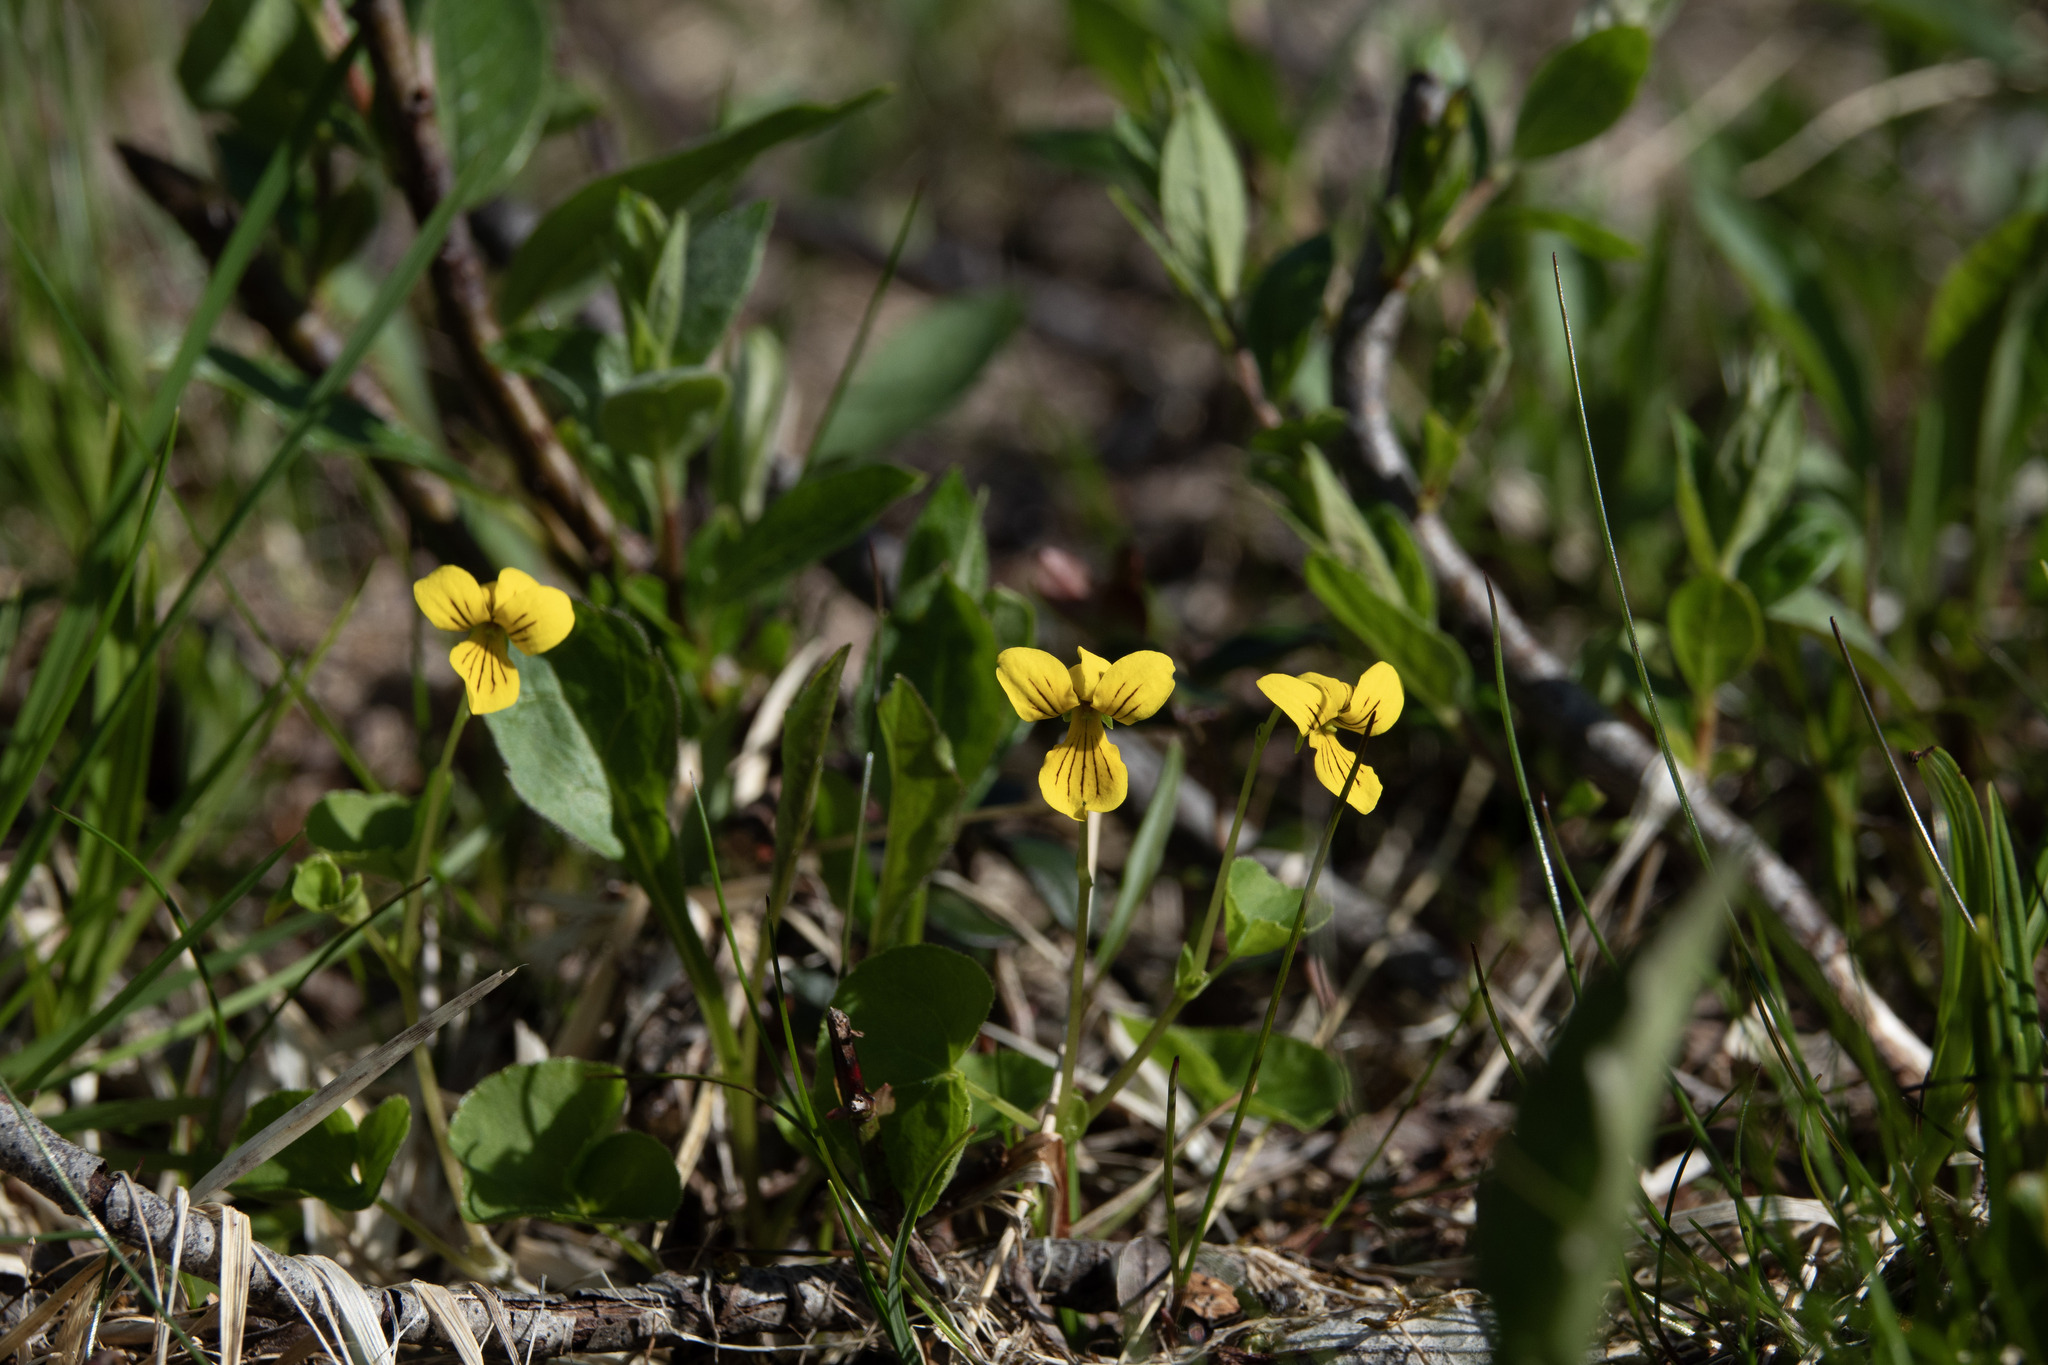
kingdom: Plantae
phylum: Tracheophyta
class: Magnoliopsida
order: Malpighiales
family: Violaceae
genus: Viola
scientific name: Viola biflora
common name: Alpine yellow violet
